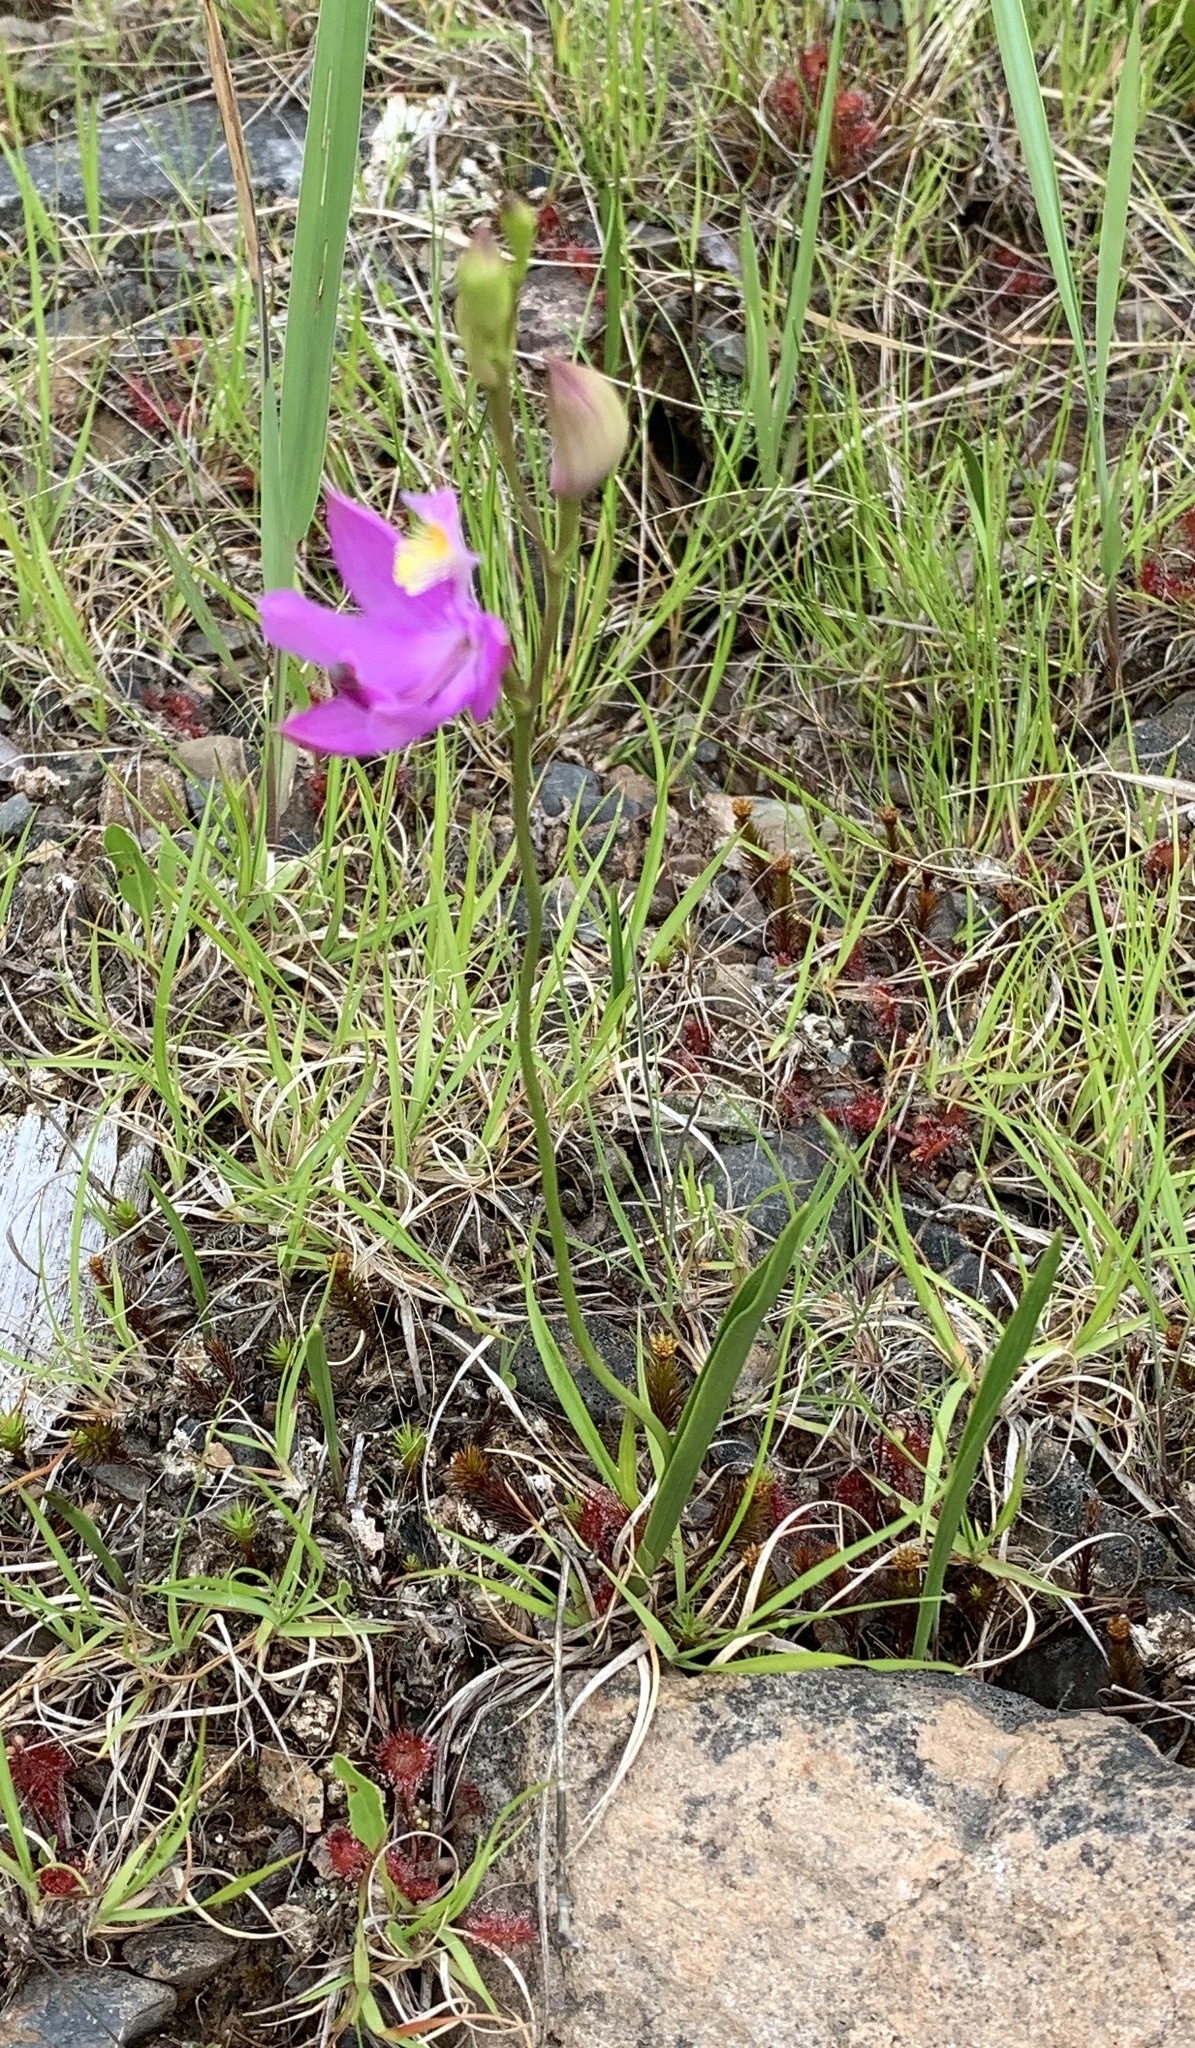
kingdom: Plantae
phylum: Tracheophyta
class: Liliopsida
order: Asparagales
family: Orchidaceae
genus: Calopogon
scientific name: Calopogon tuberosus
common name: Grass-pink
